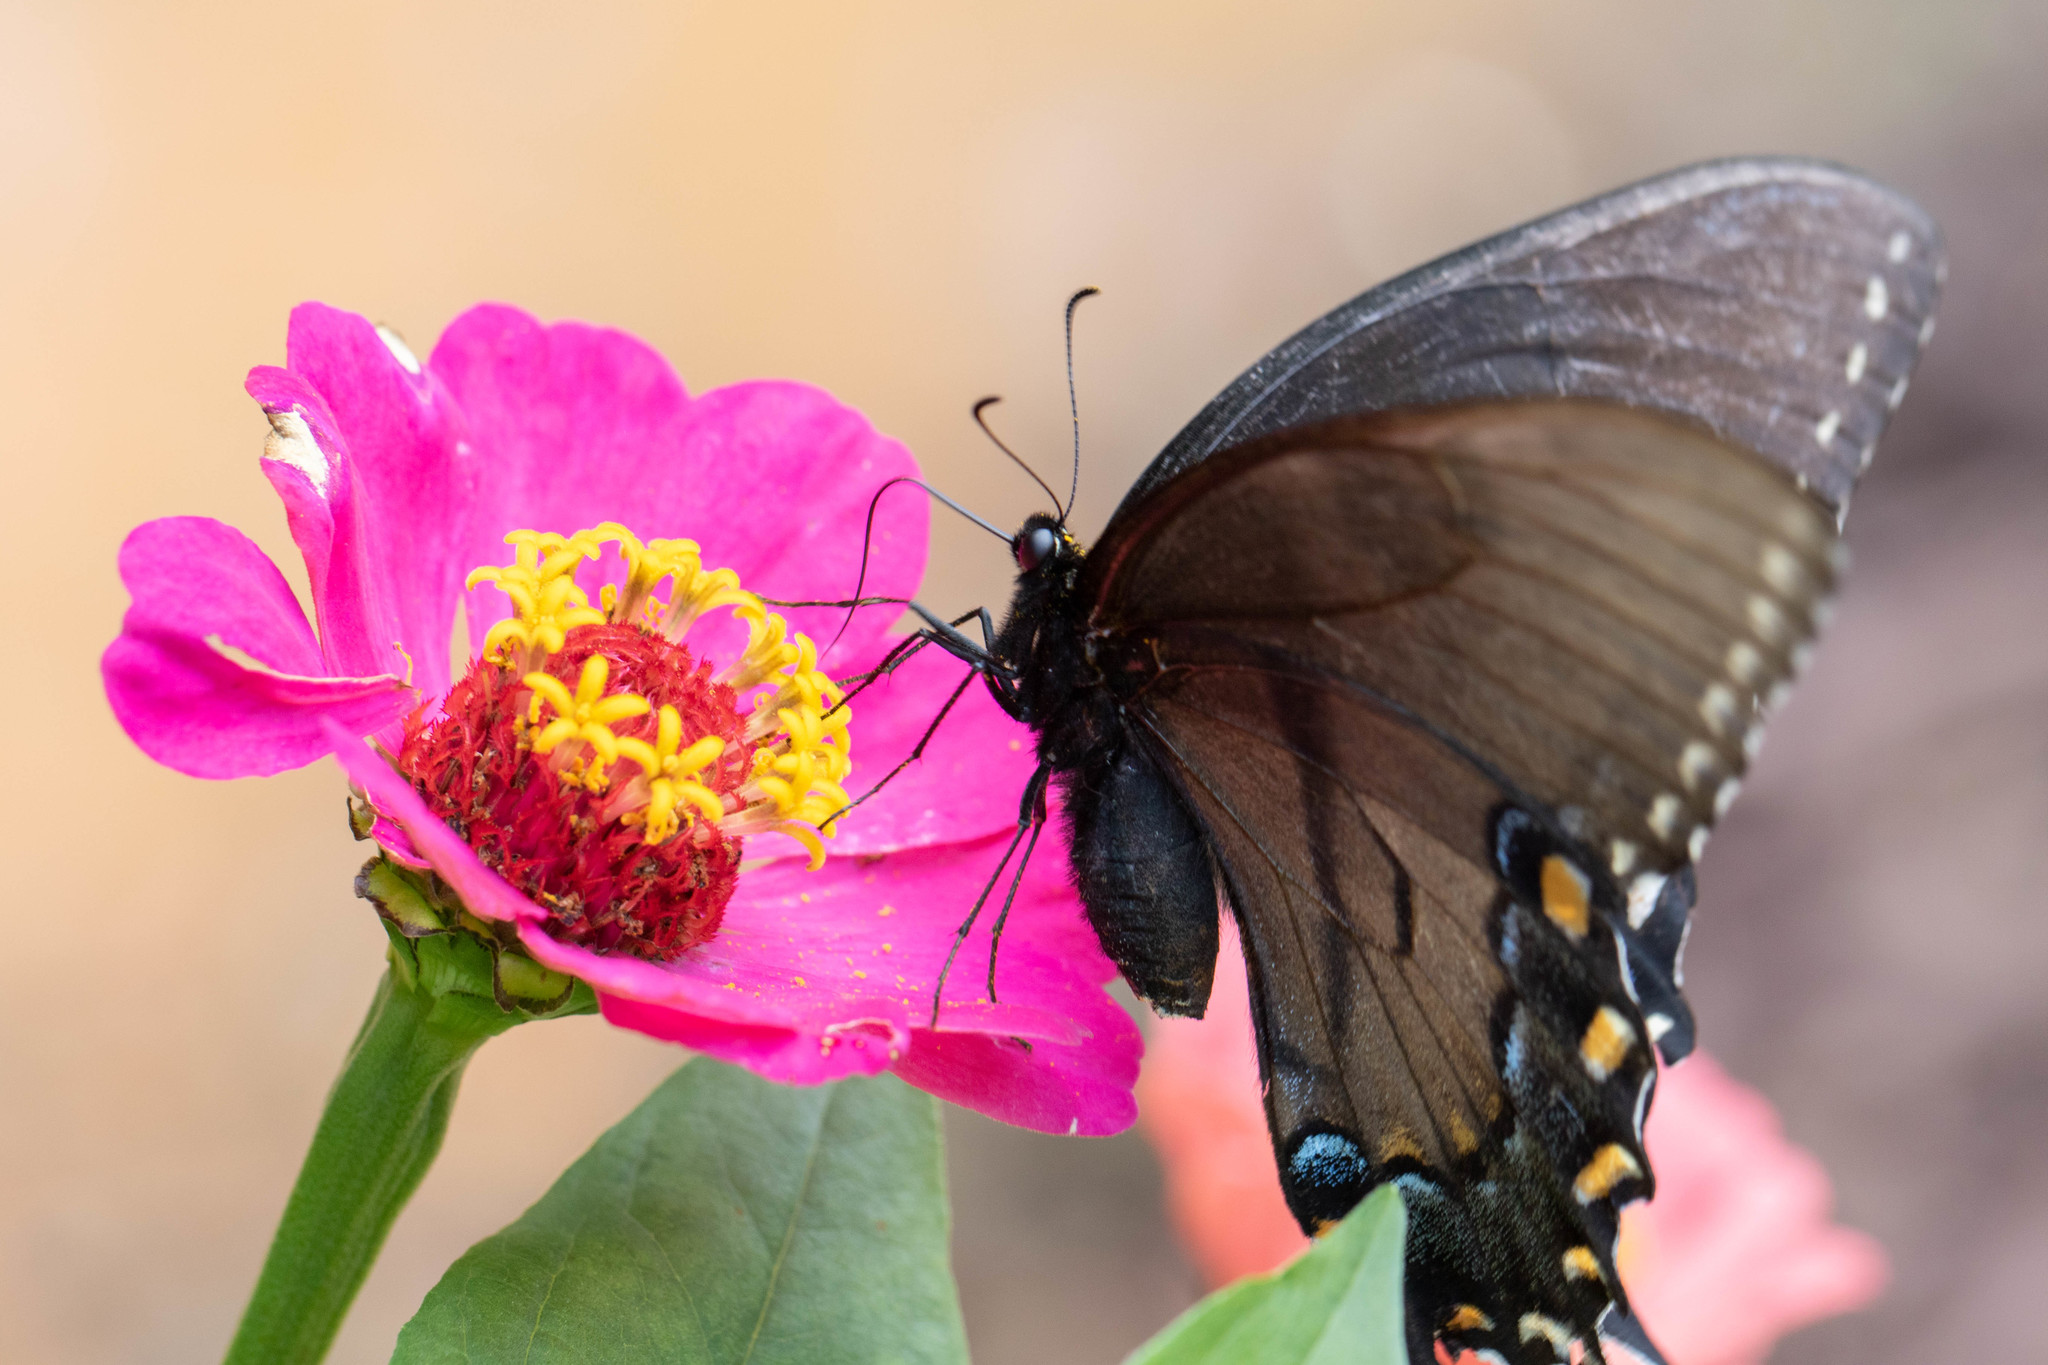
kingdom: Animalia
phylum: Arthropoda
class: Insecta
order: Lepidoptera
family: Papilionidae
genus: Papilio
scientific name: Papilio glaucus
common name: Tiger swallowtail
